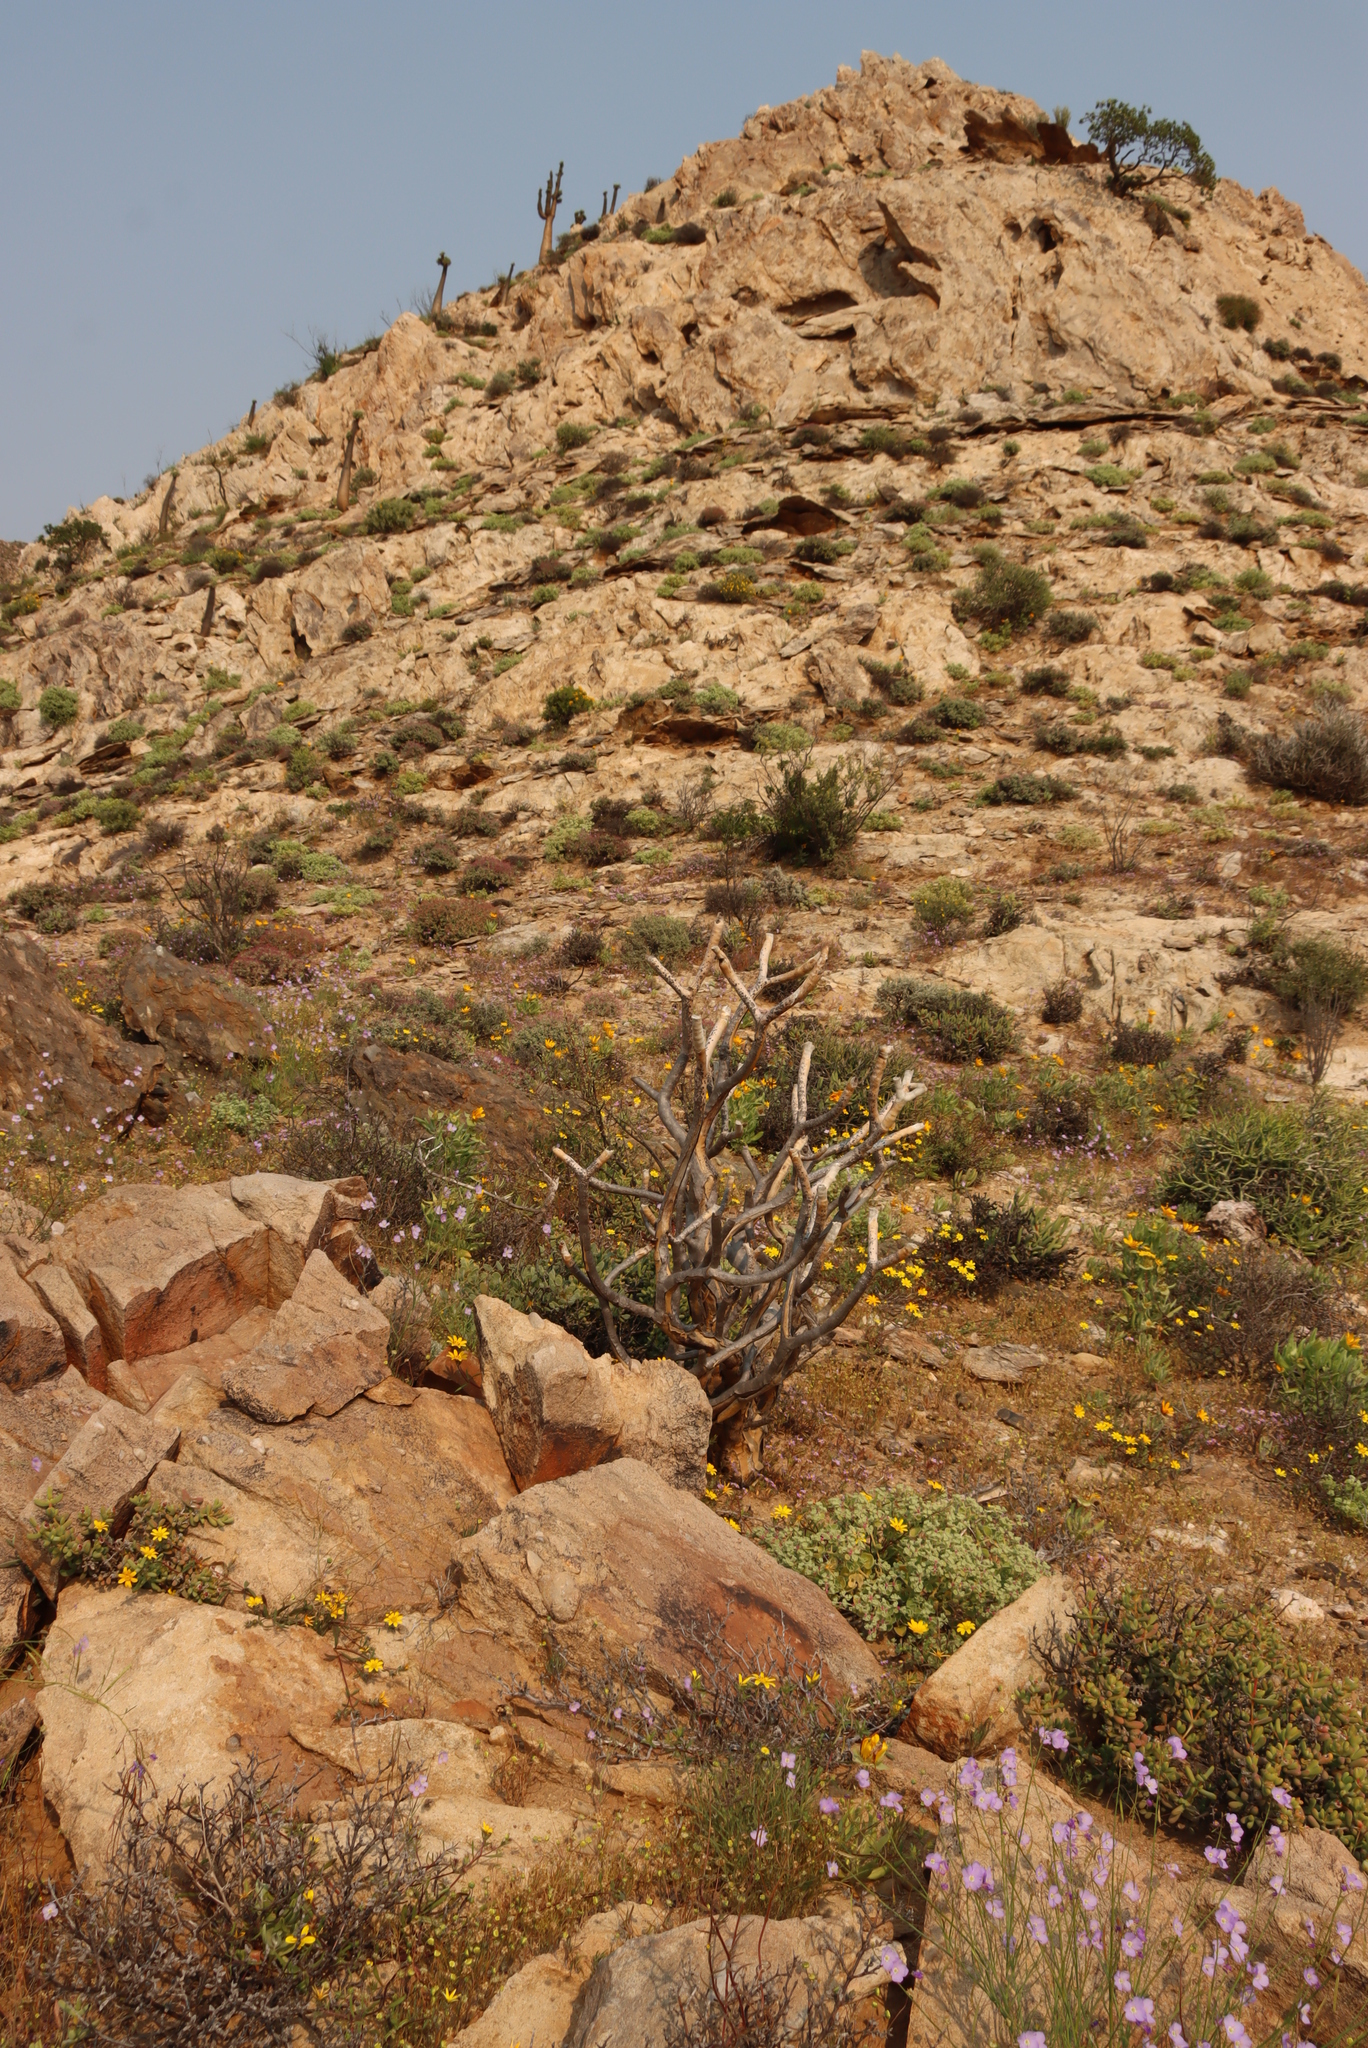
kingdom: Plantae
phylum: Tracheophyta
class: Liliopsida
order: Asparagales
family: Asphodelaceae
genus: Aloidendron
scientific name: Aloidendron ramosissimum
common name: Bush quiver tree
